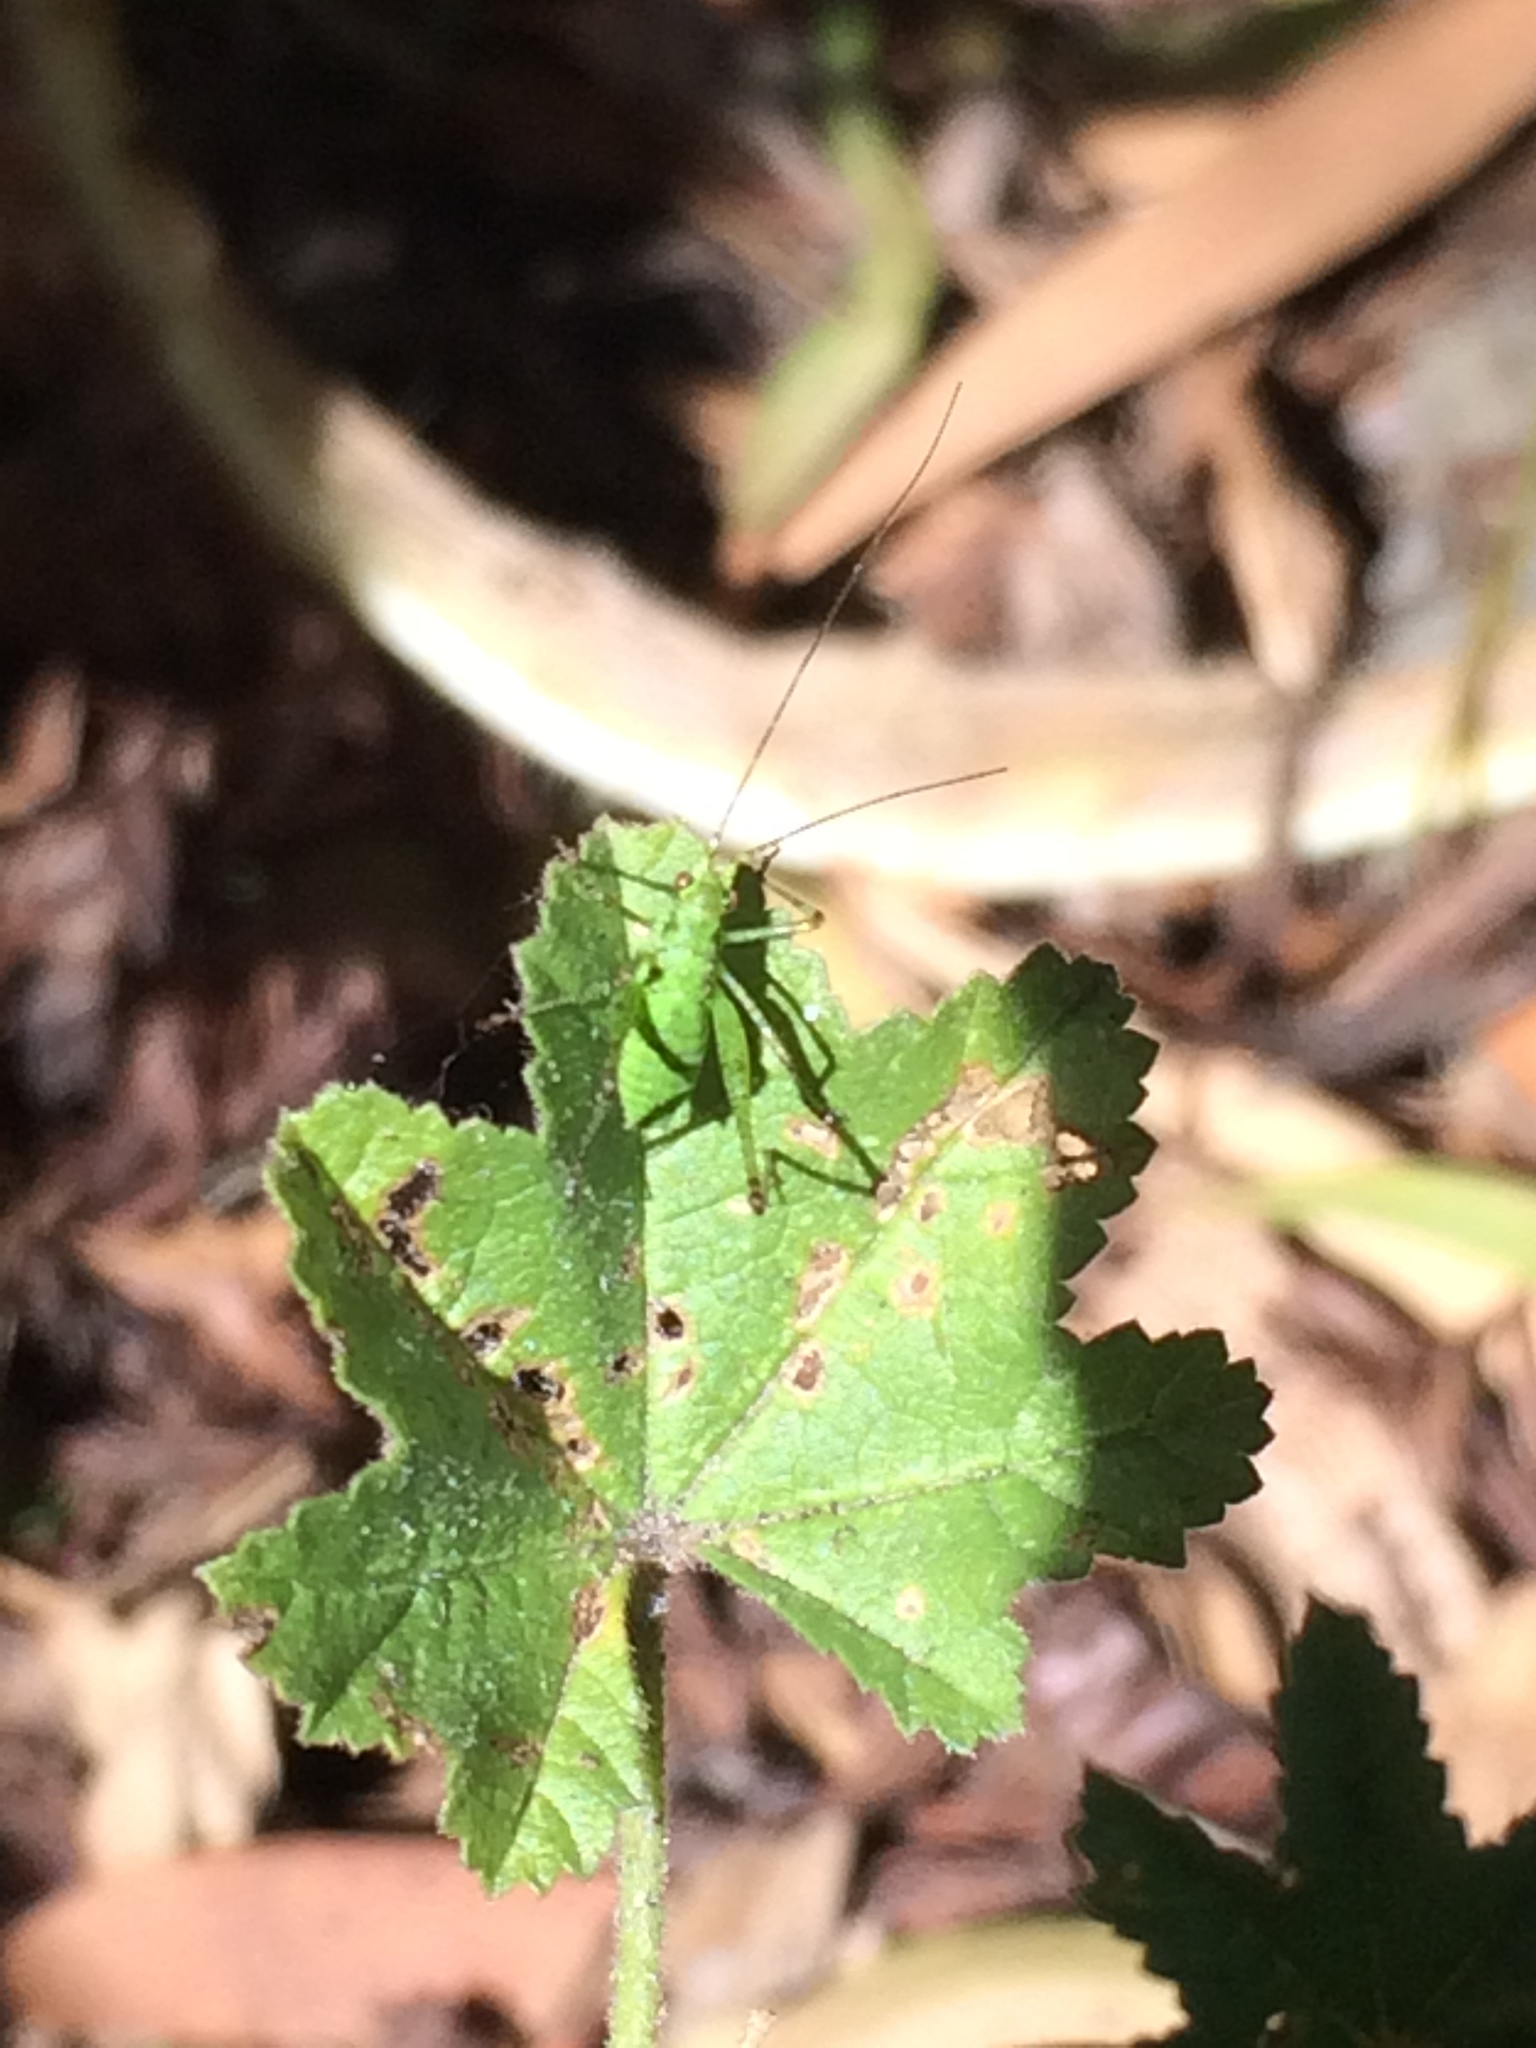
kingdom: Animalia
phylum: Arthropoda
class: Insecta
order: Orthoptera
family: Tettigoniidae
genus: Phaneroptera
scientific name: Phaneroptera nana
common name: Southern sickle bush-cricket
